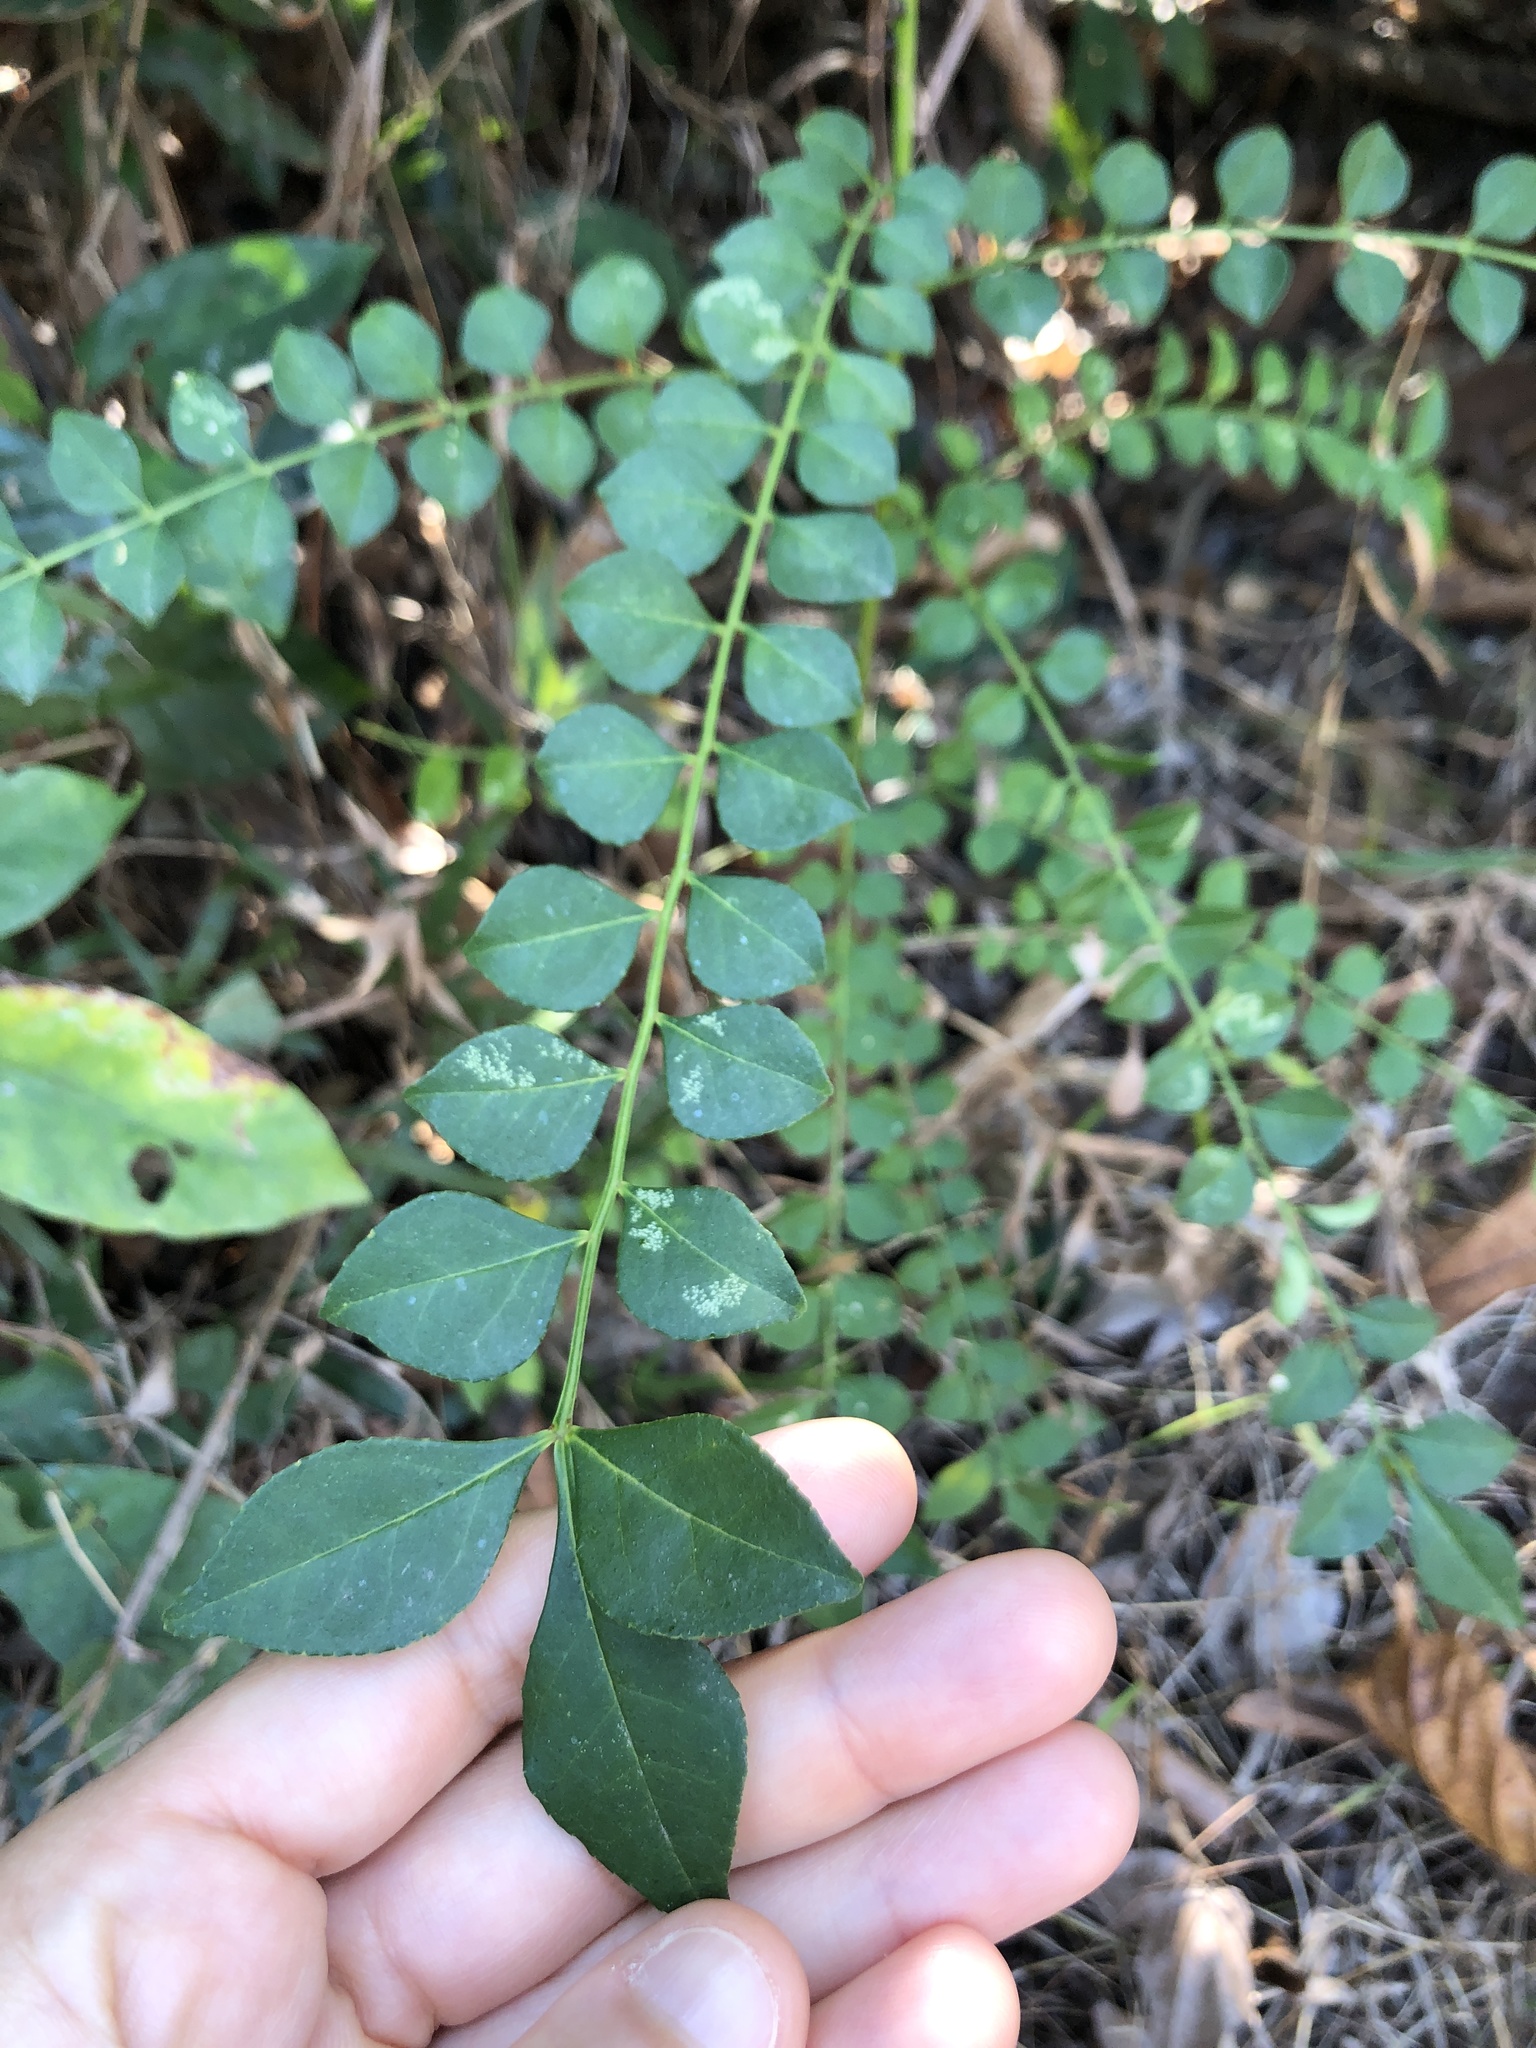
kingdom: Plantae
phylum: Tracheophyta
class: Magnoliopsida
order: Lamiales
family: Oleaceae
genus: Ligustrum
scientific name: Ligustrum sinense
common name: Chinese privet
